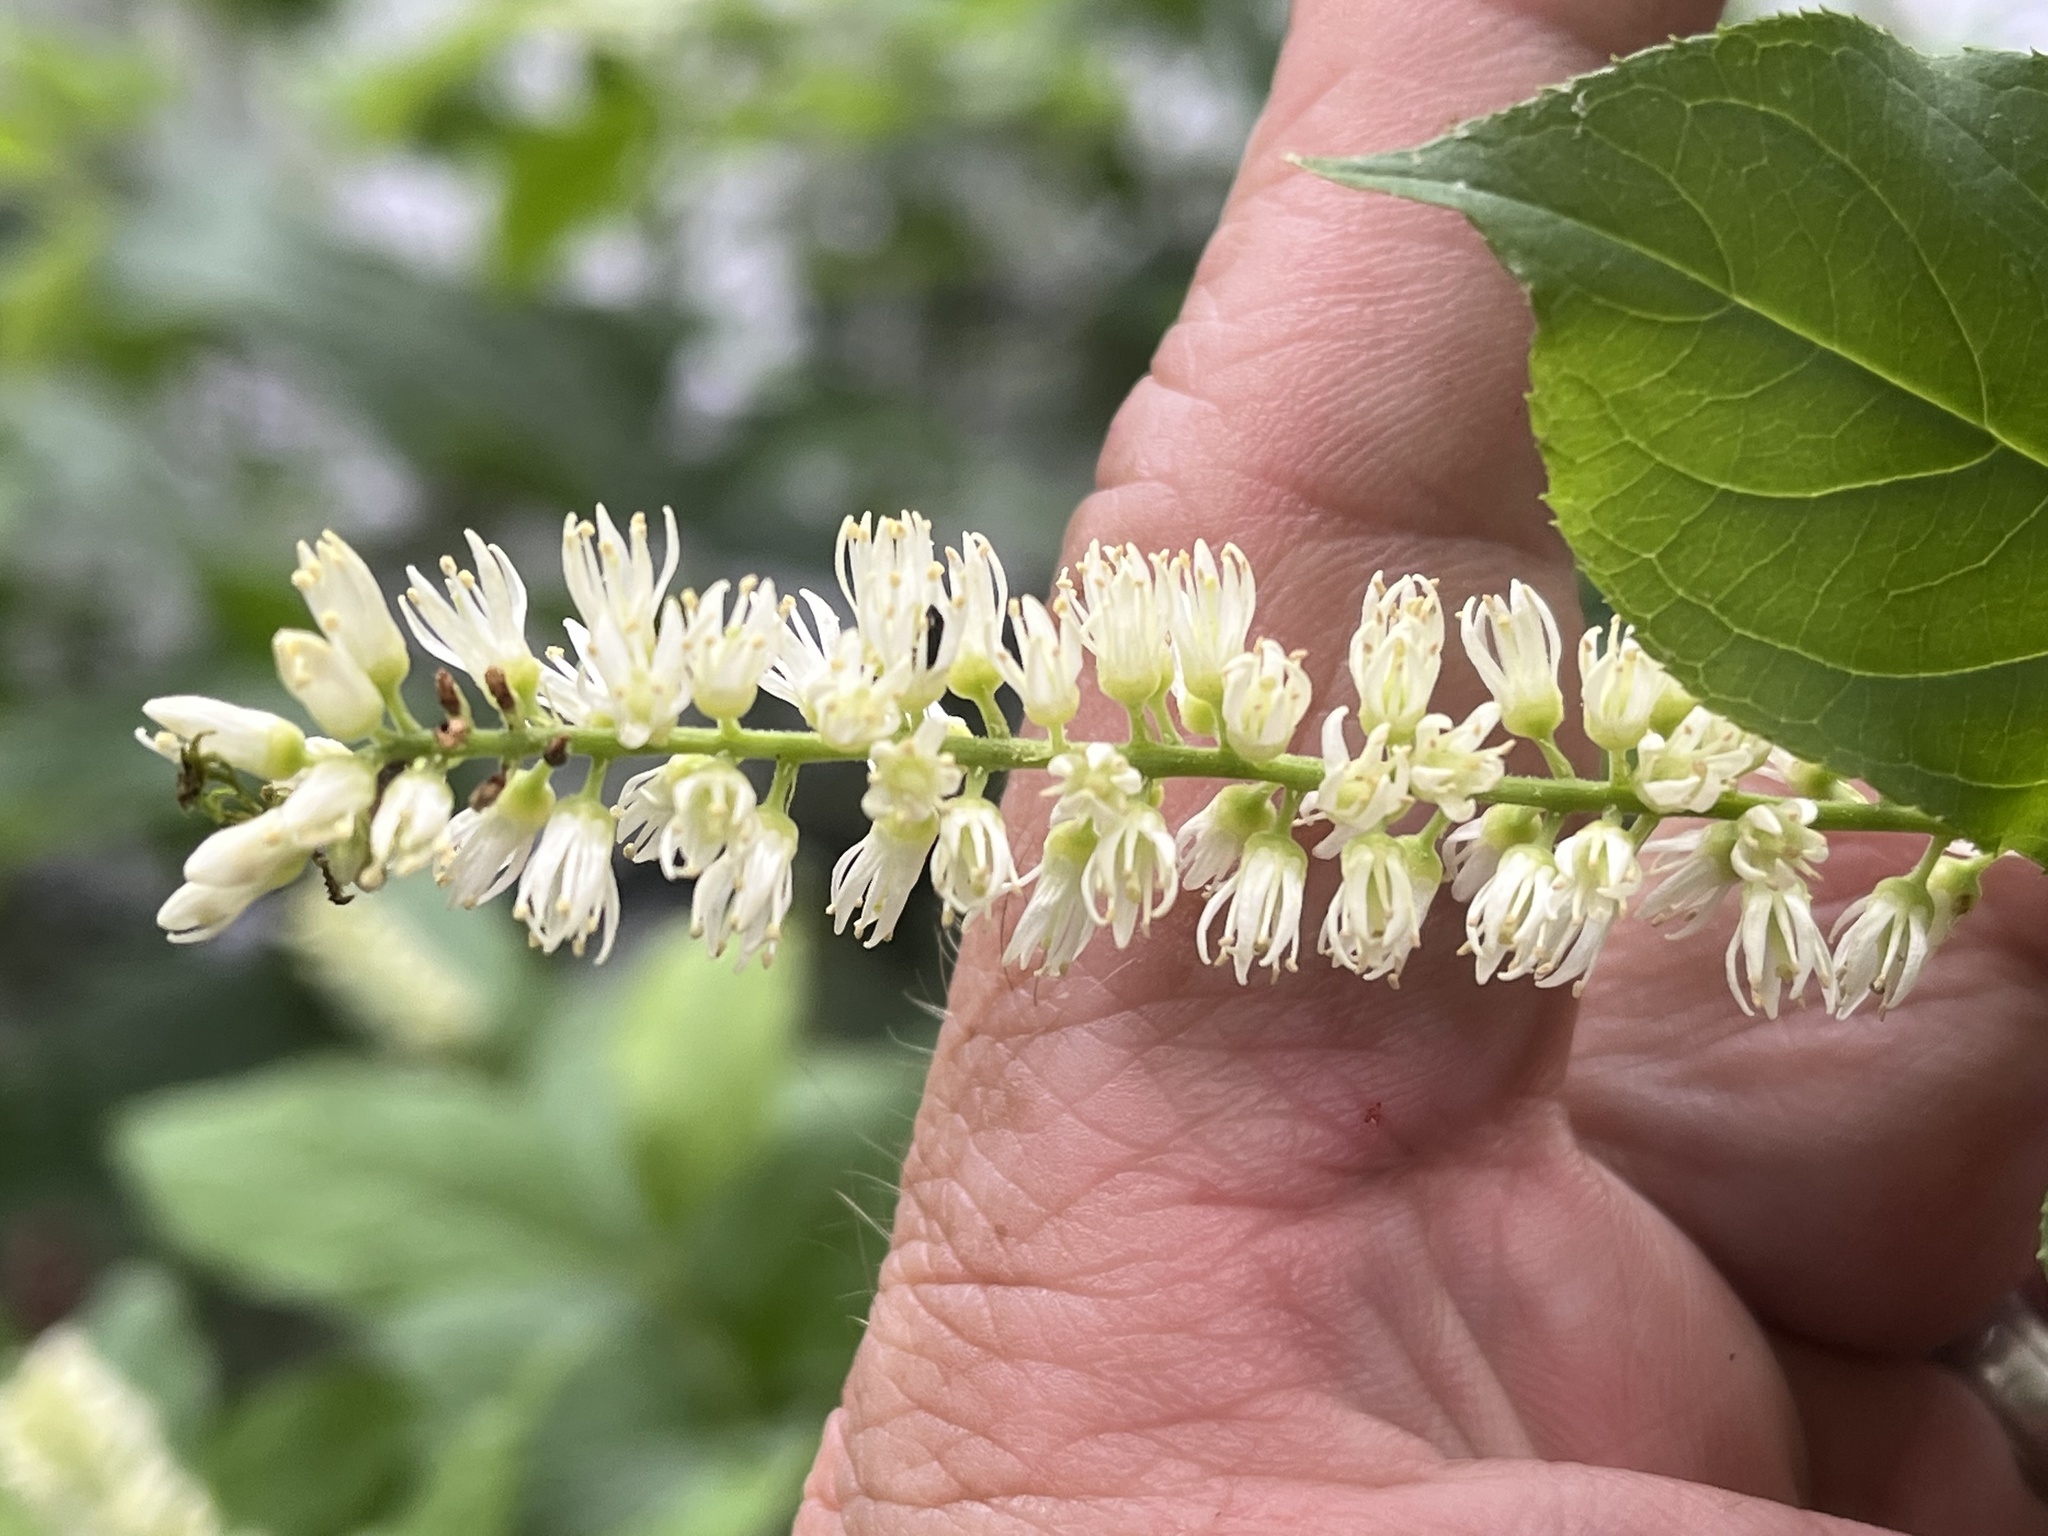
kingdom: Plantae
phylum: Tracheophyta
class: Magnoliopsida
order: Saxifragales
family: Iteaceae
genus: Itea
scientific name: Itea virginica
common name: Sweetspire
